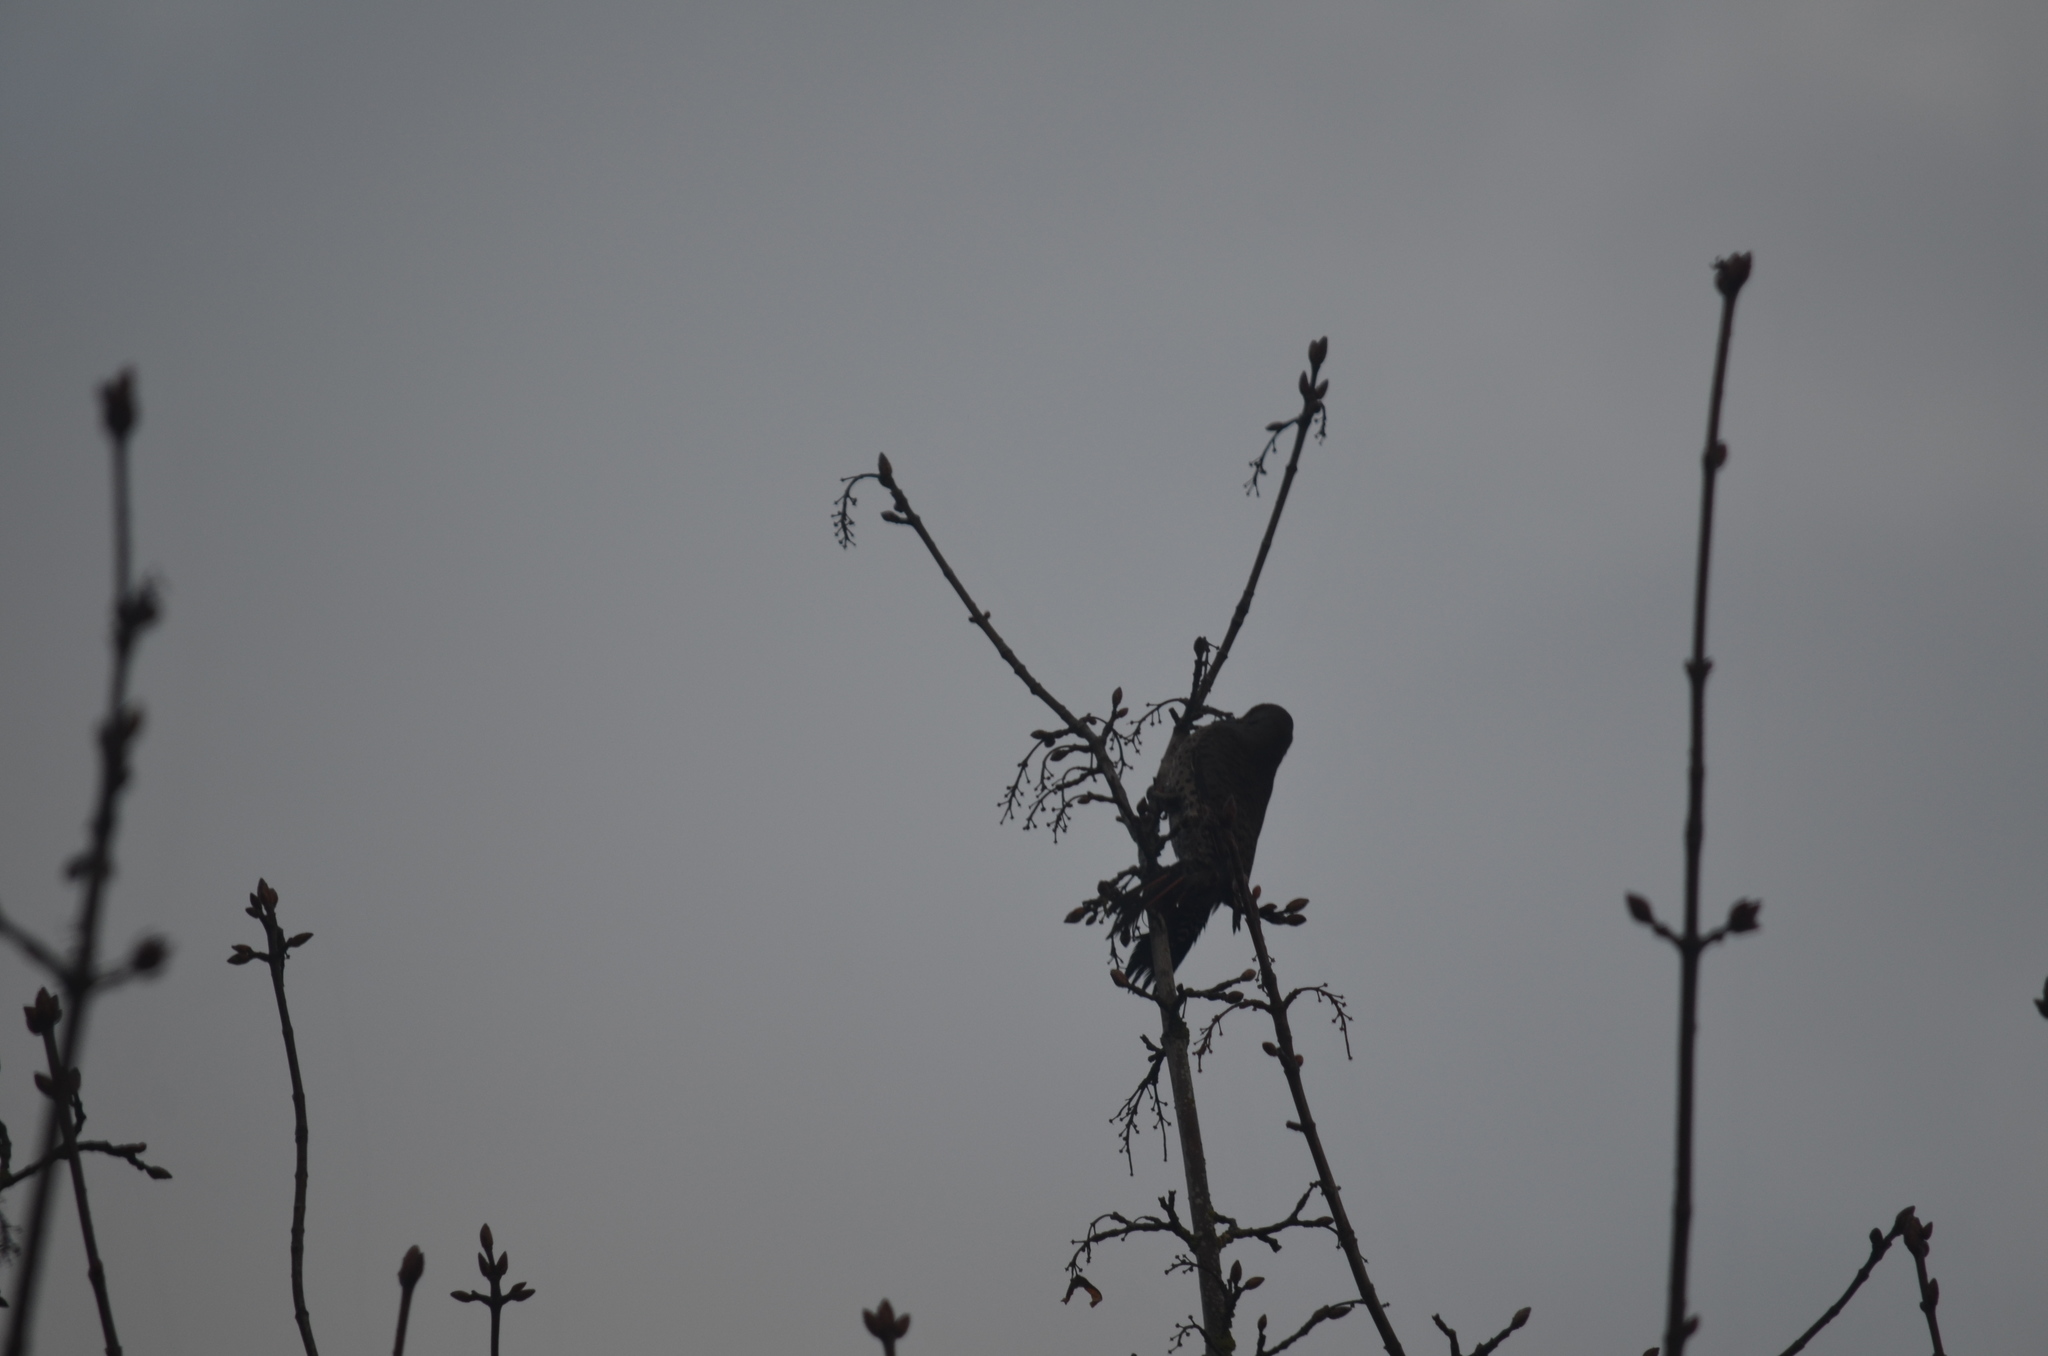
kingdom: Animalia
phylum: Chordata
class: Aves
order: Piciformes
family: Picidae
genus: Colaptes
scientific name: Colaptes auratus
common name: Northern flicker
